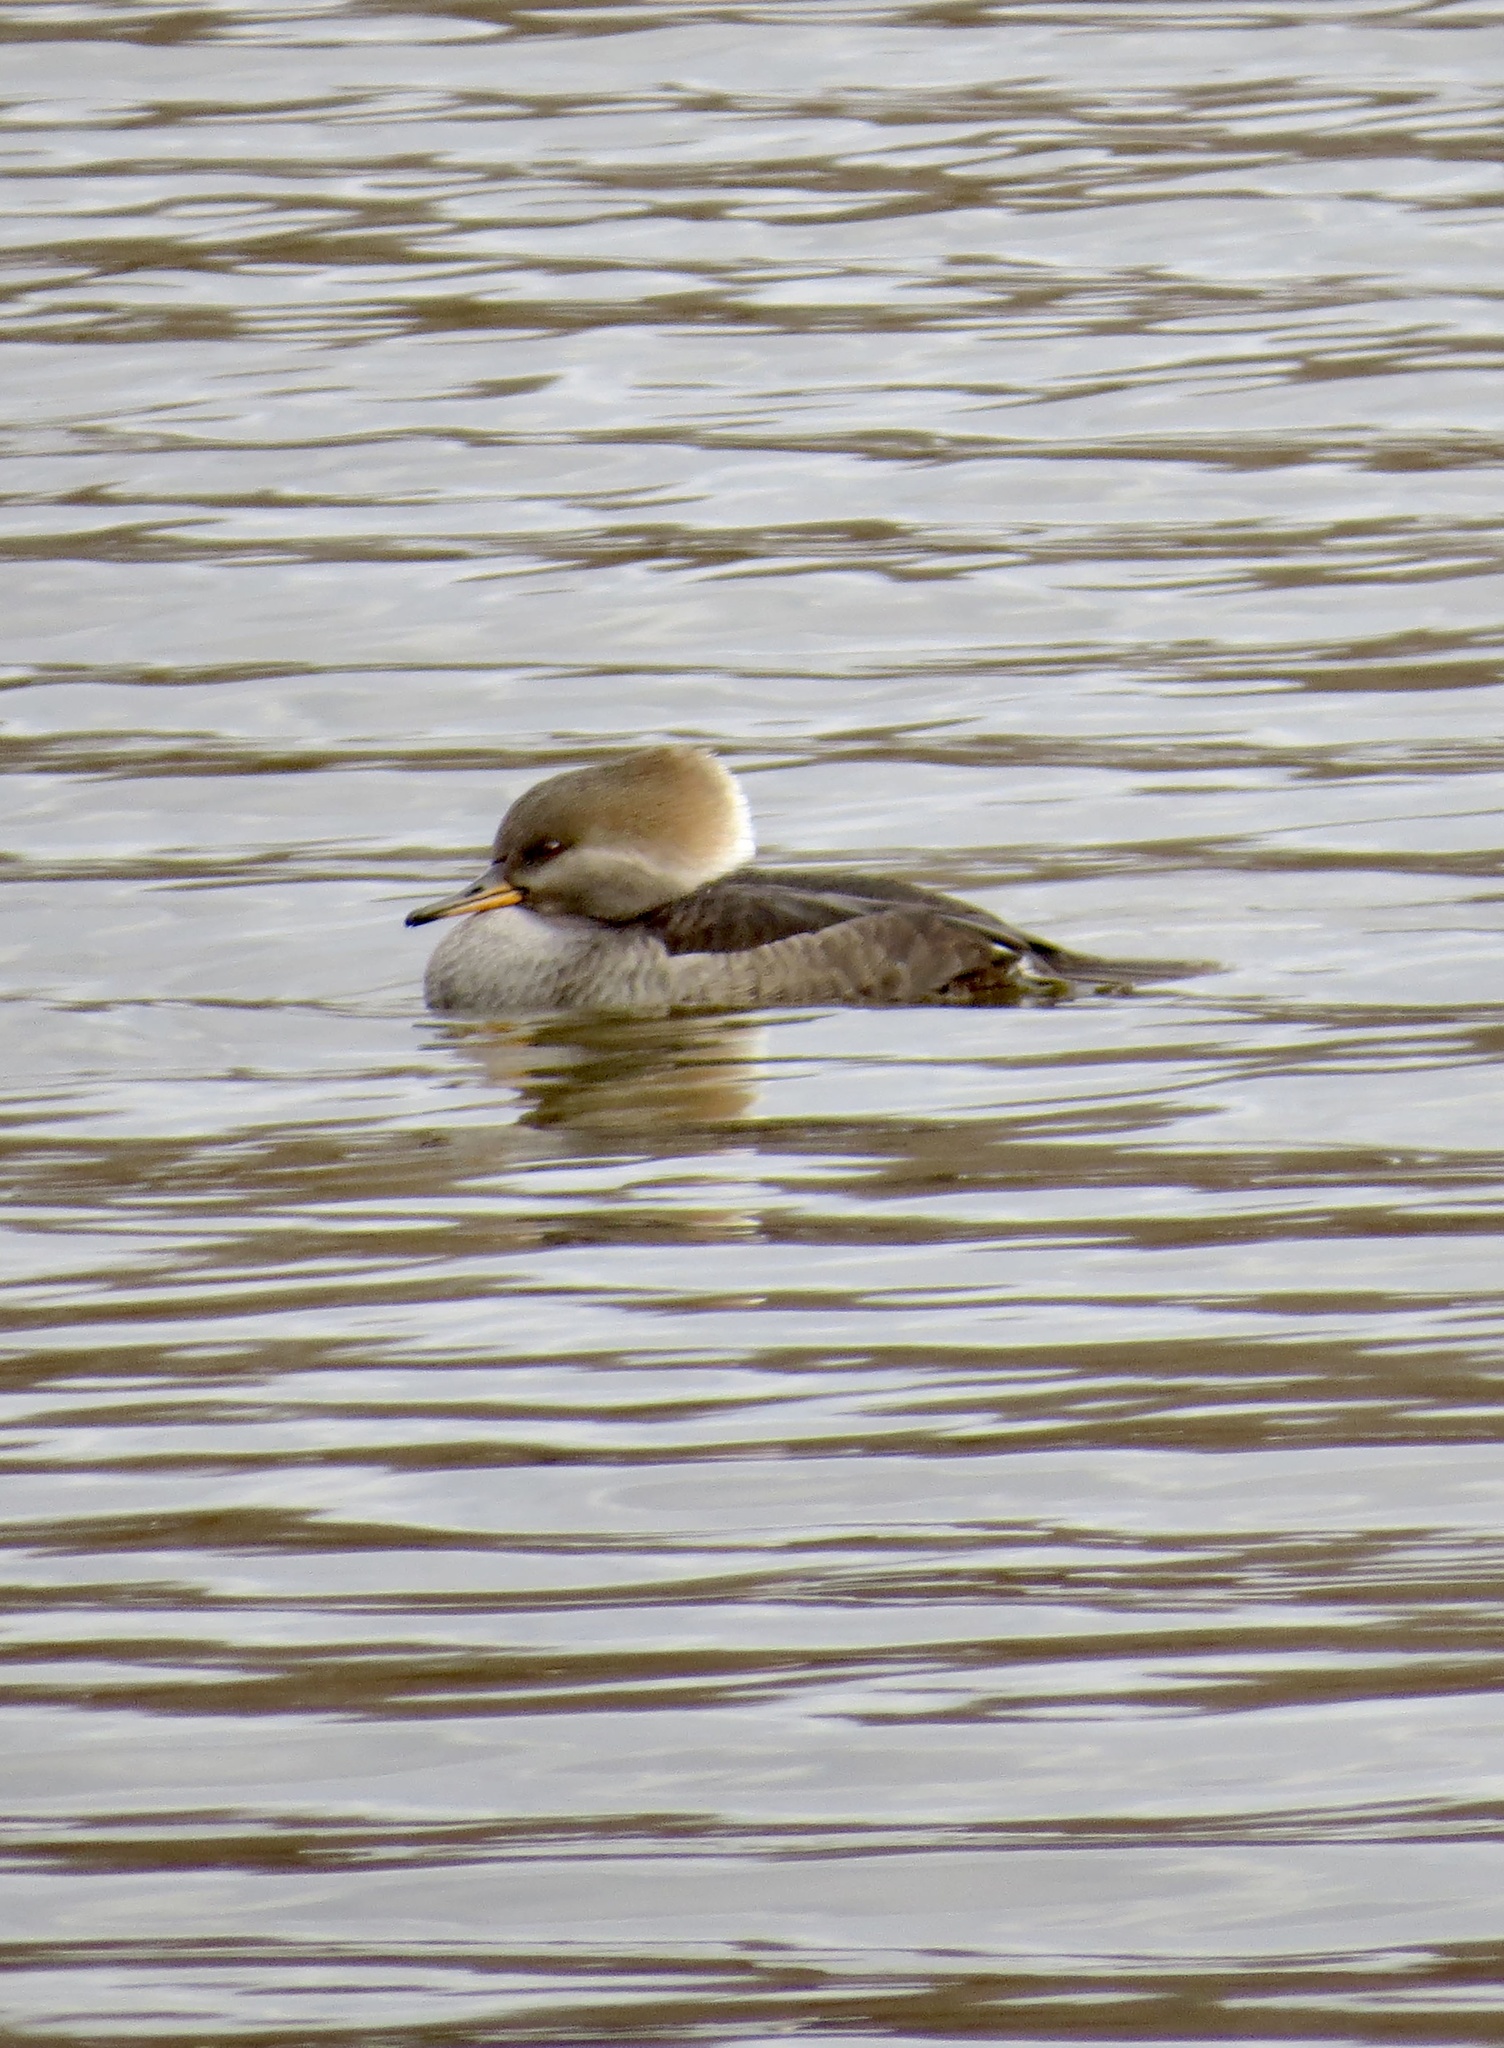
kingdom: Animalia
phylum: Chordata
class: Aves
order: Anseriformes
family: Anatidae
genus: Lophodytes
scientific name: Lophodytes cucullatus
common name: Hooded merganser
